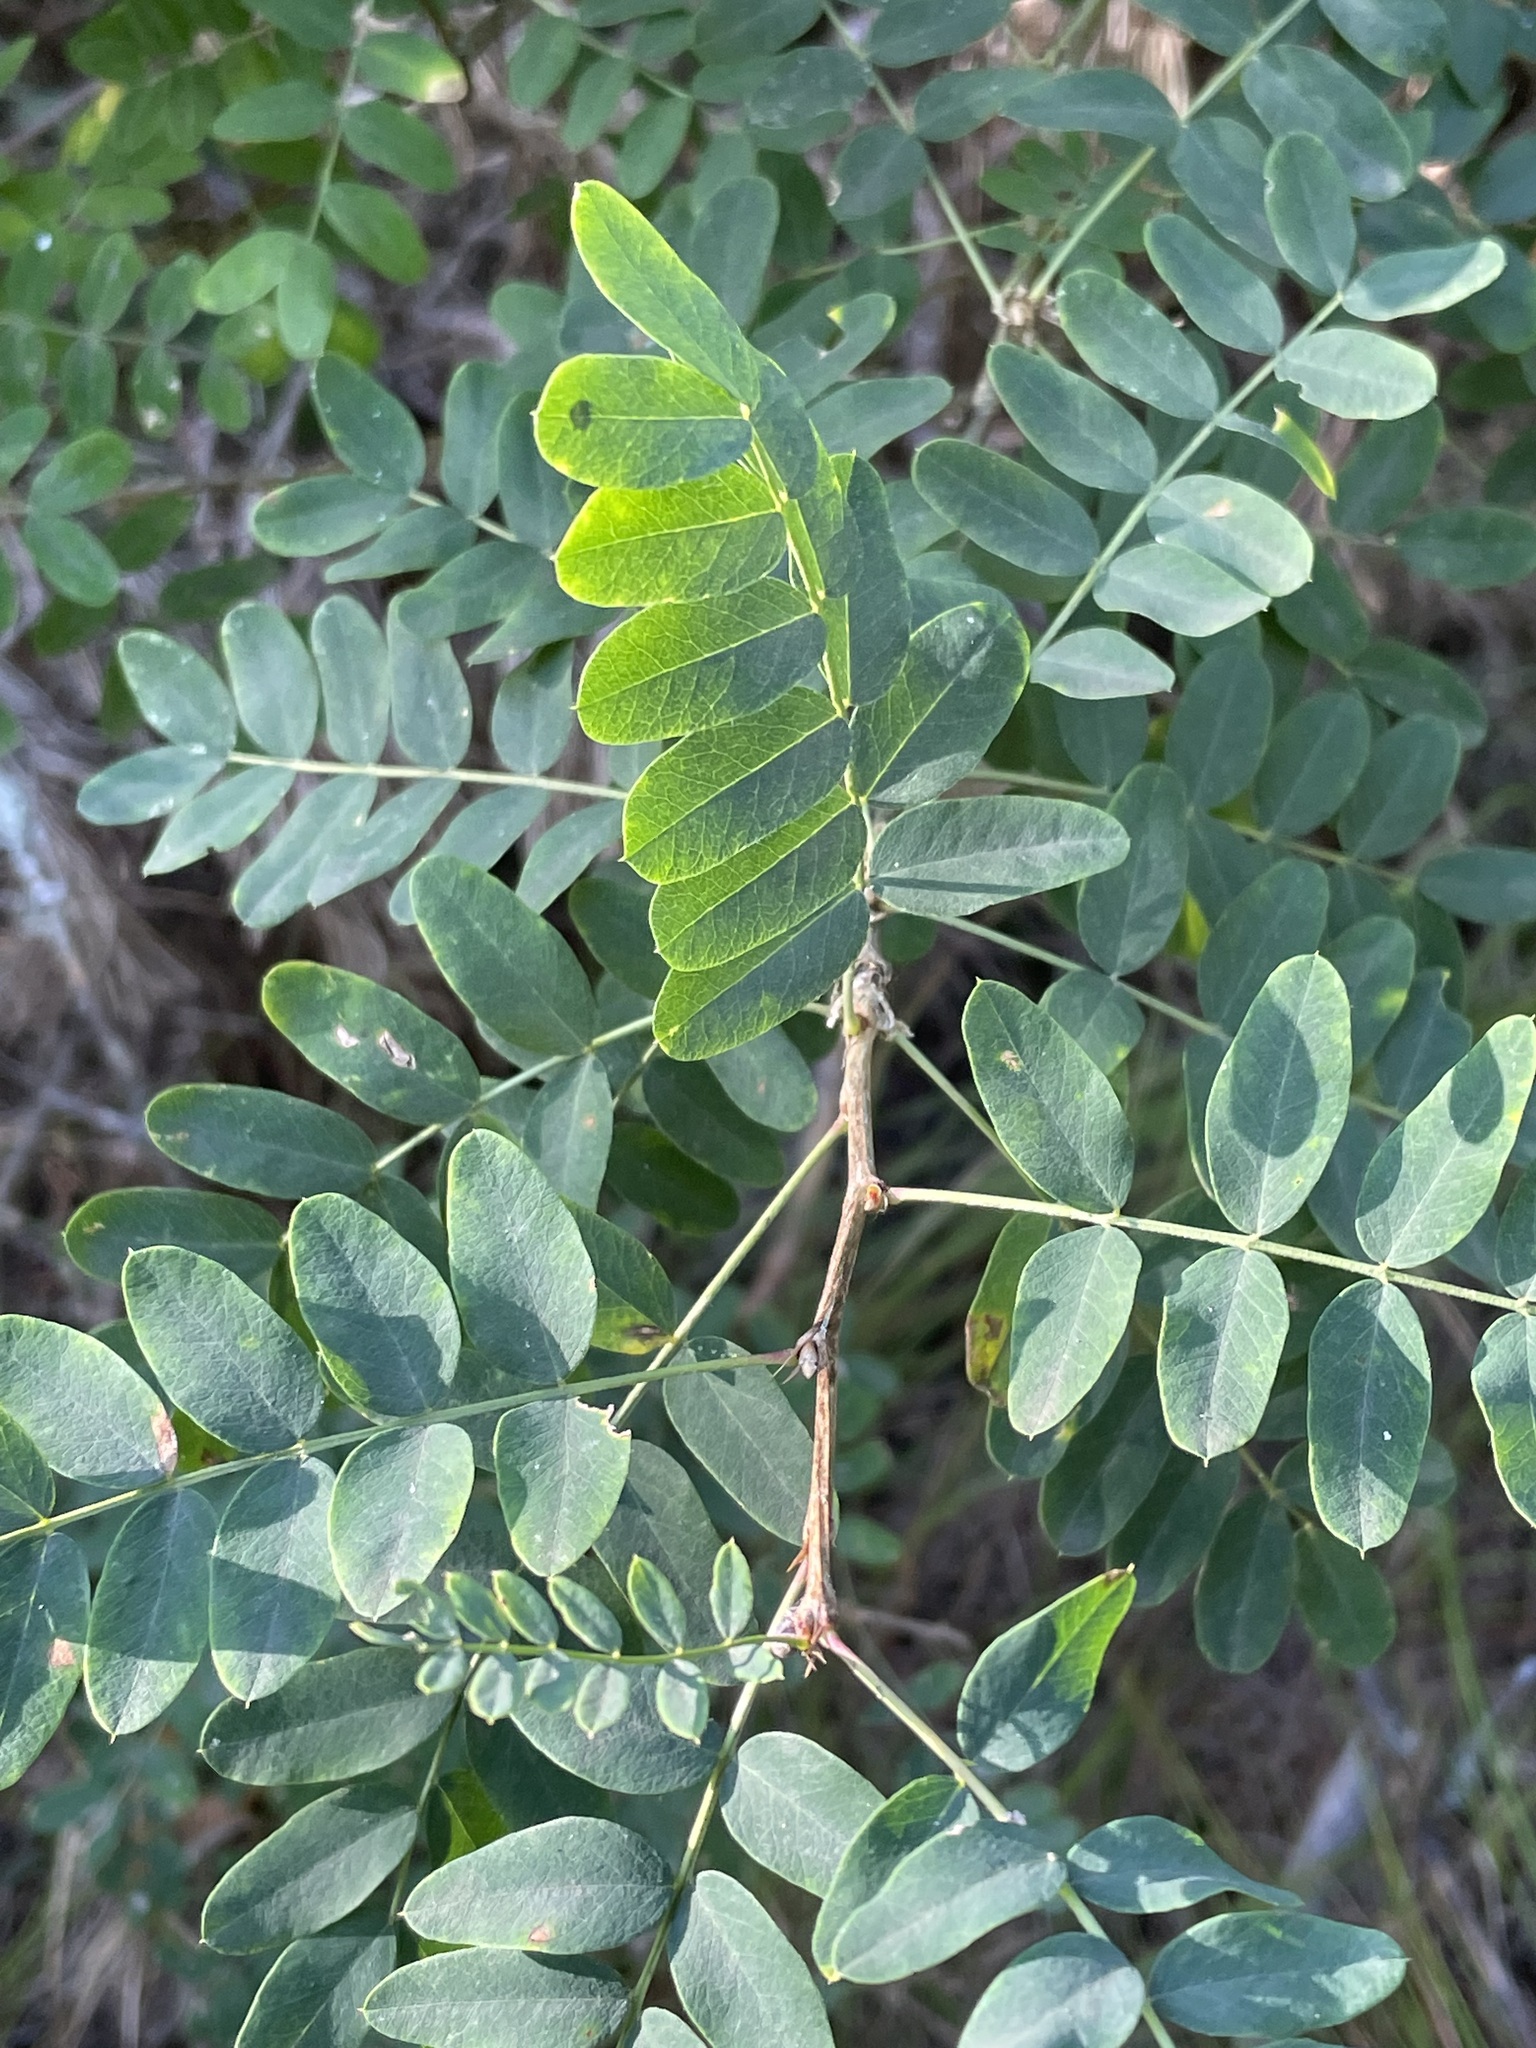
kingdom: Plantae
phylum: Tracheophyta
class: Magnoliopsida
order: Fabales
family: Fabaceae
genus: Caragana
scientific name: Caragana arborescens
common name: Siberian peashrub
